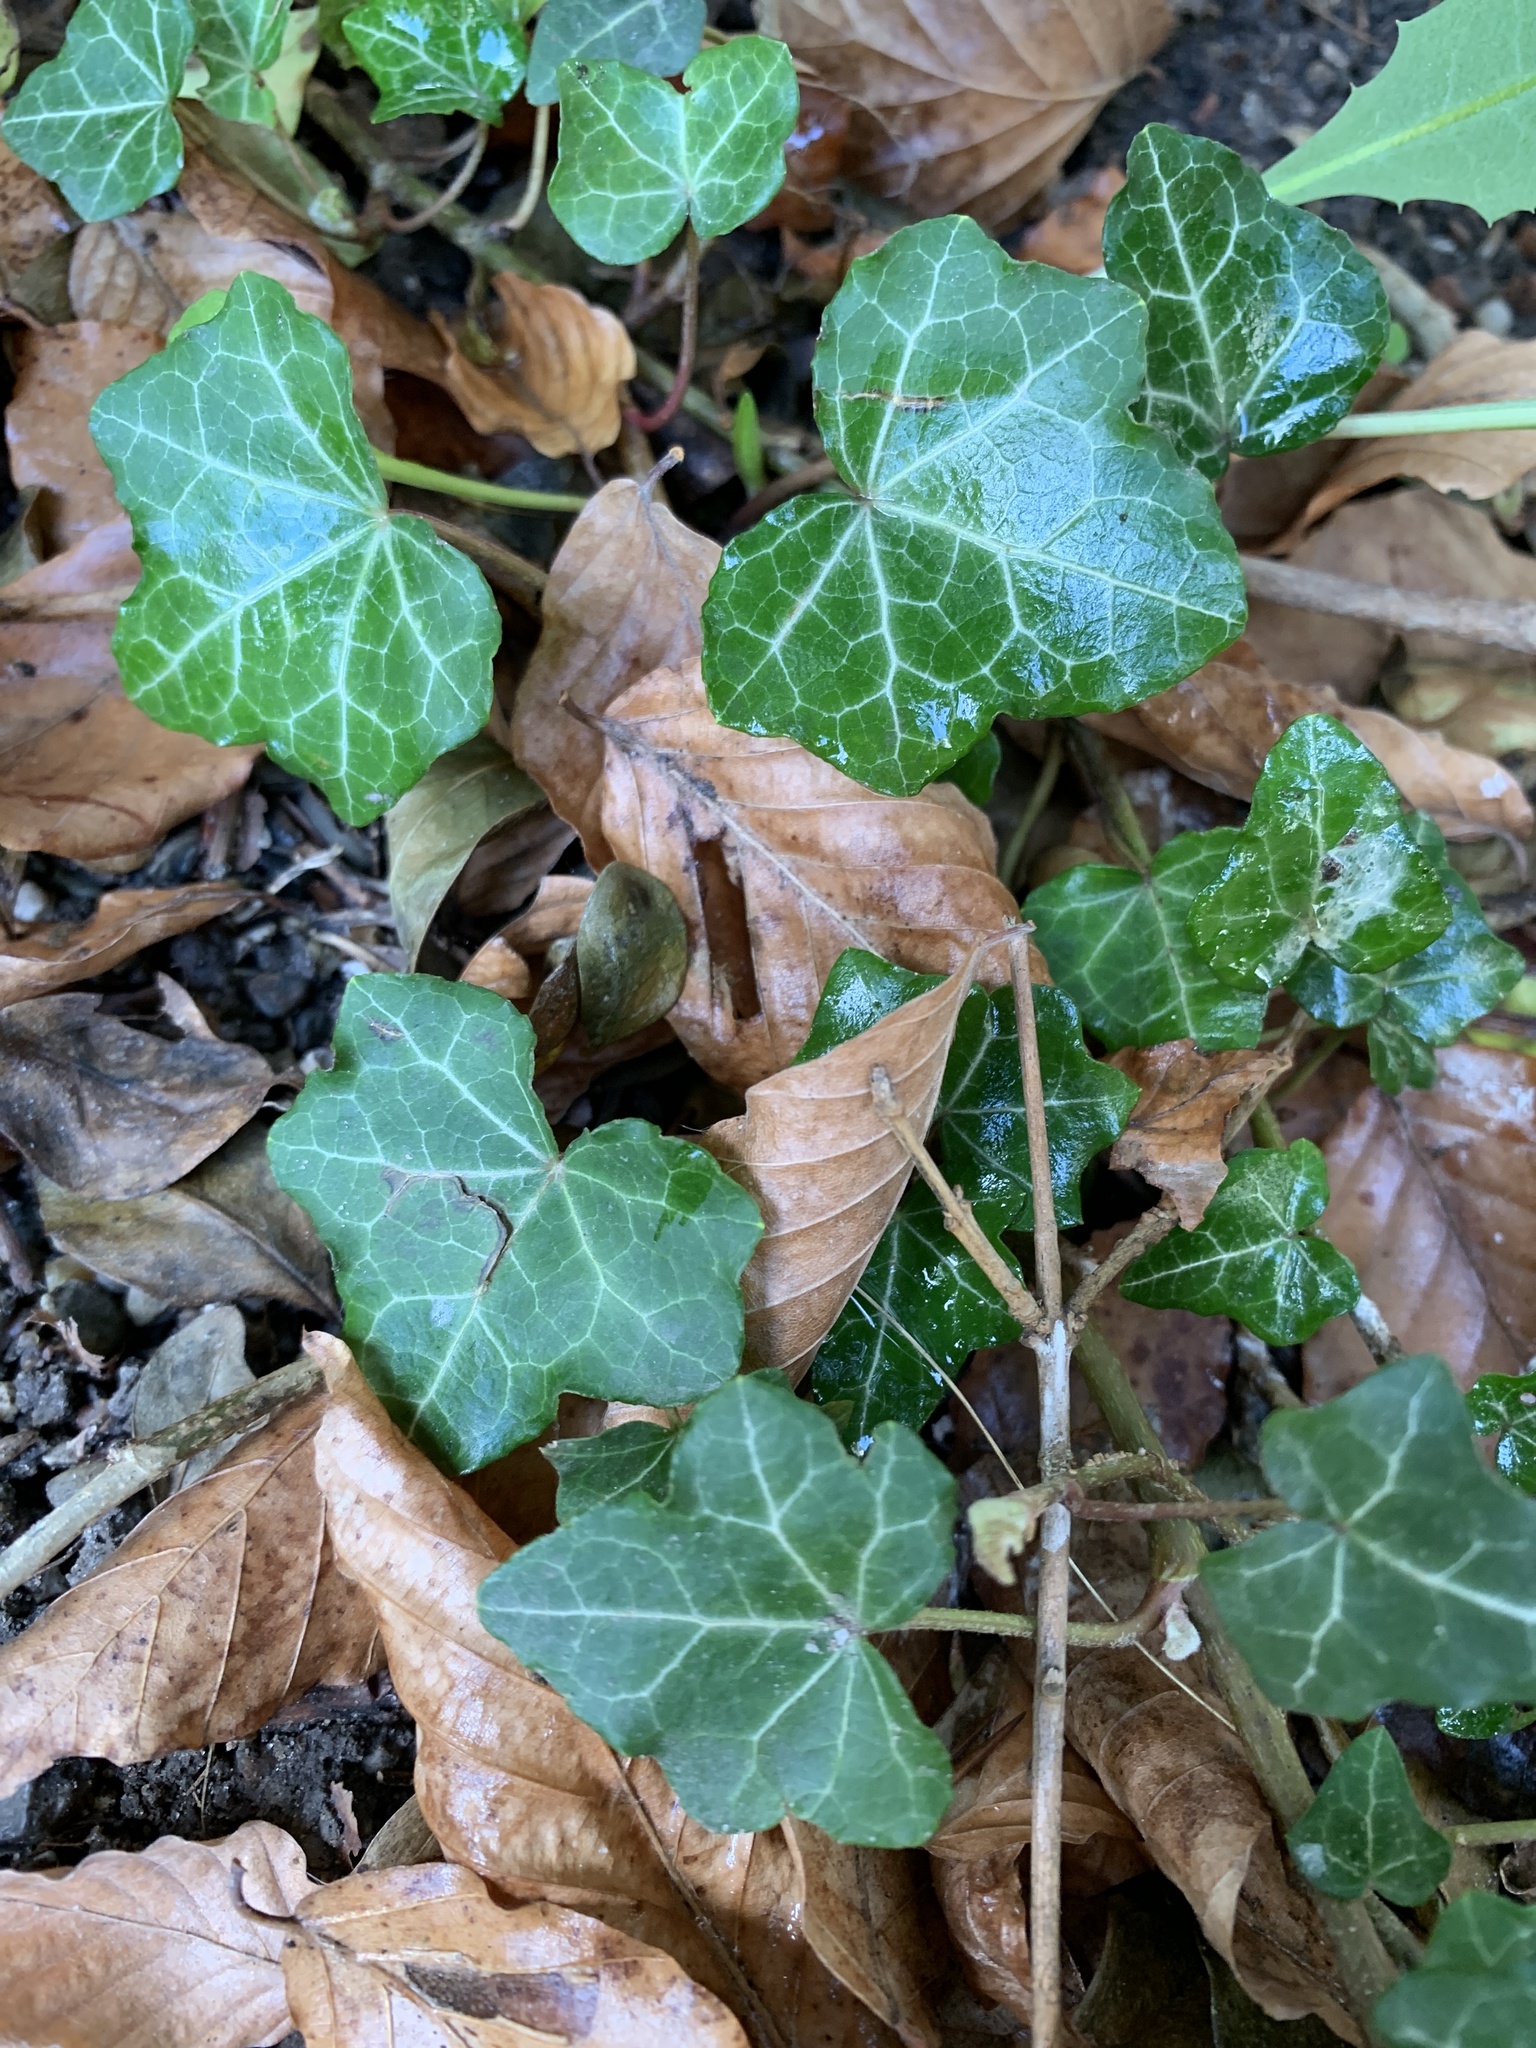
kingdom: Plantae
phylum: Tracheophyta
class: Magnoliopsida
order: Apiales
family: Araliaceae
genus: Hedera
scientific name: Hedera helix
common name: Ivy
